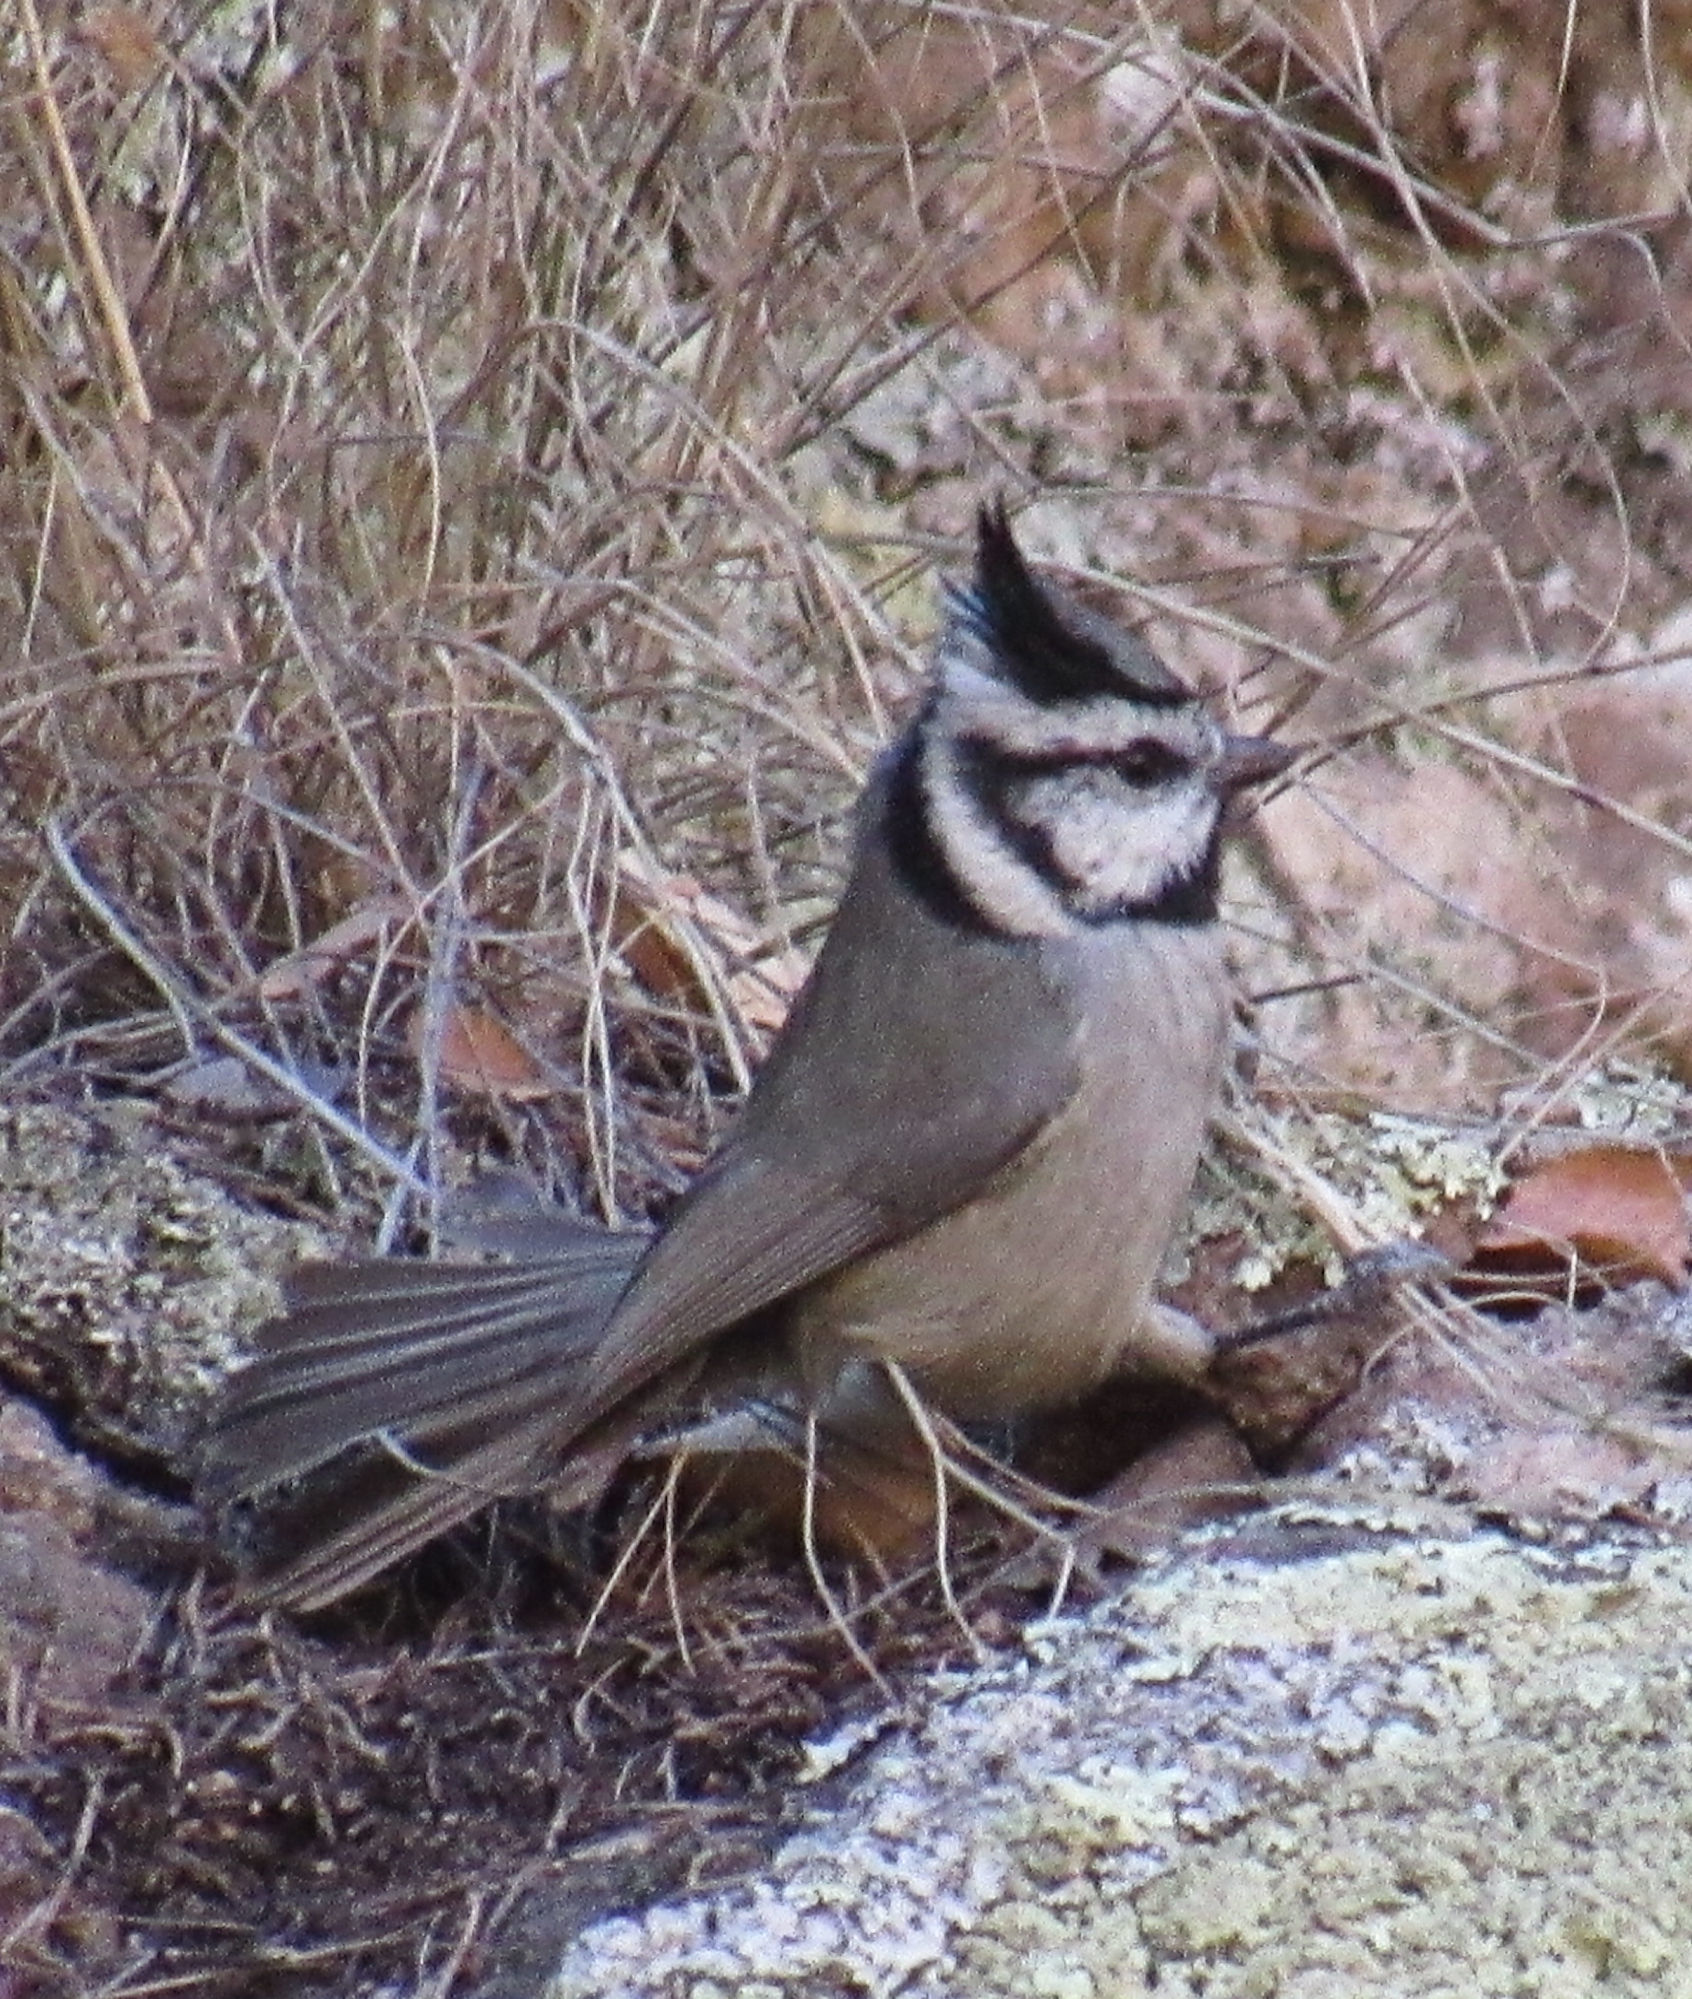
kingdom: Animalia
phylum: Chordata
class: Aves
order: Passeriformes
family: Paridae
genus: Baeolophus
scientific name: Baeolophus wollweberi
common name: Bridled titmouse
